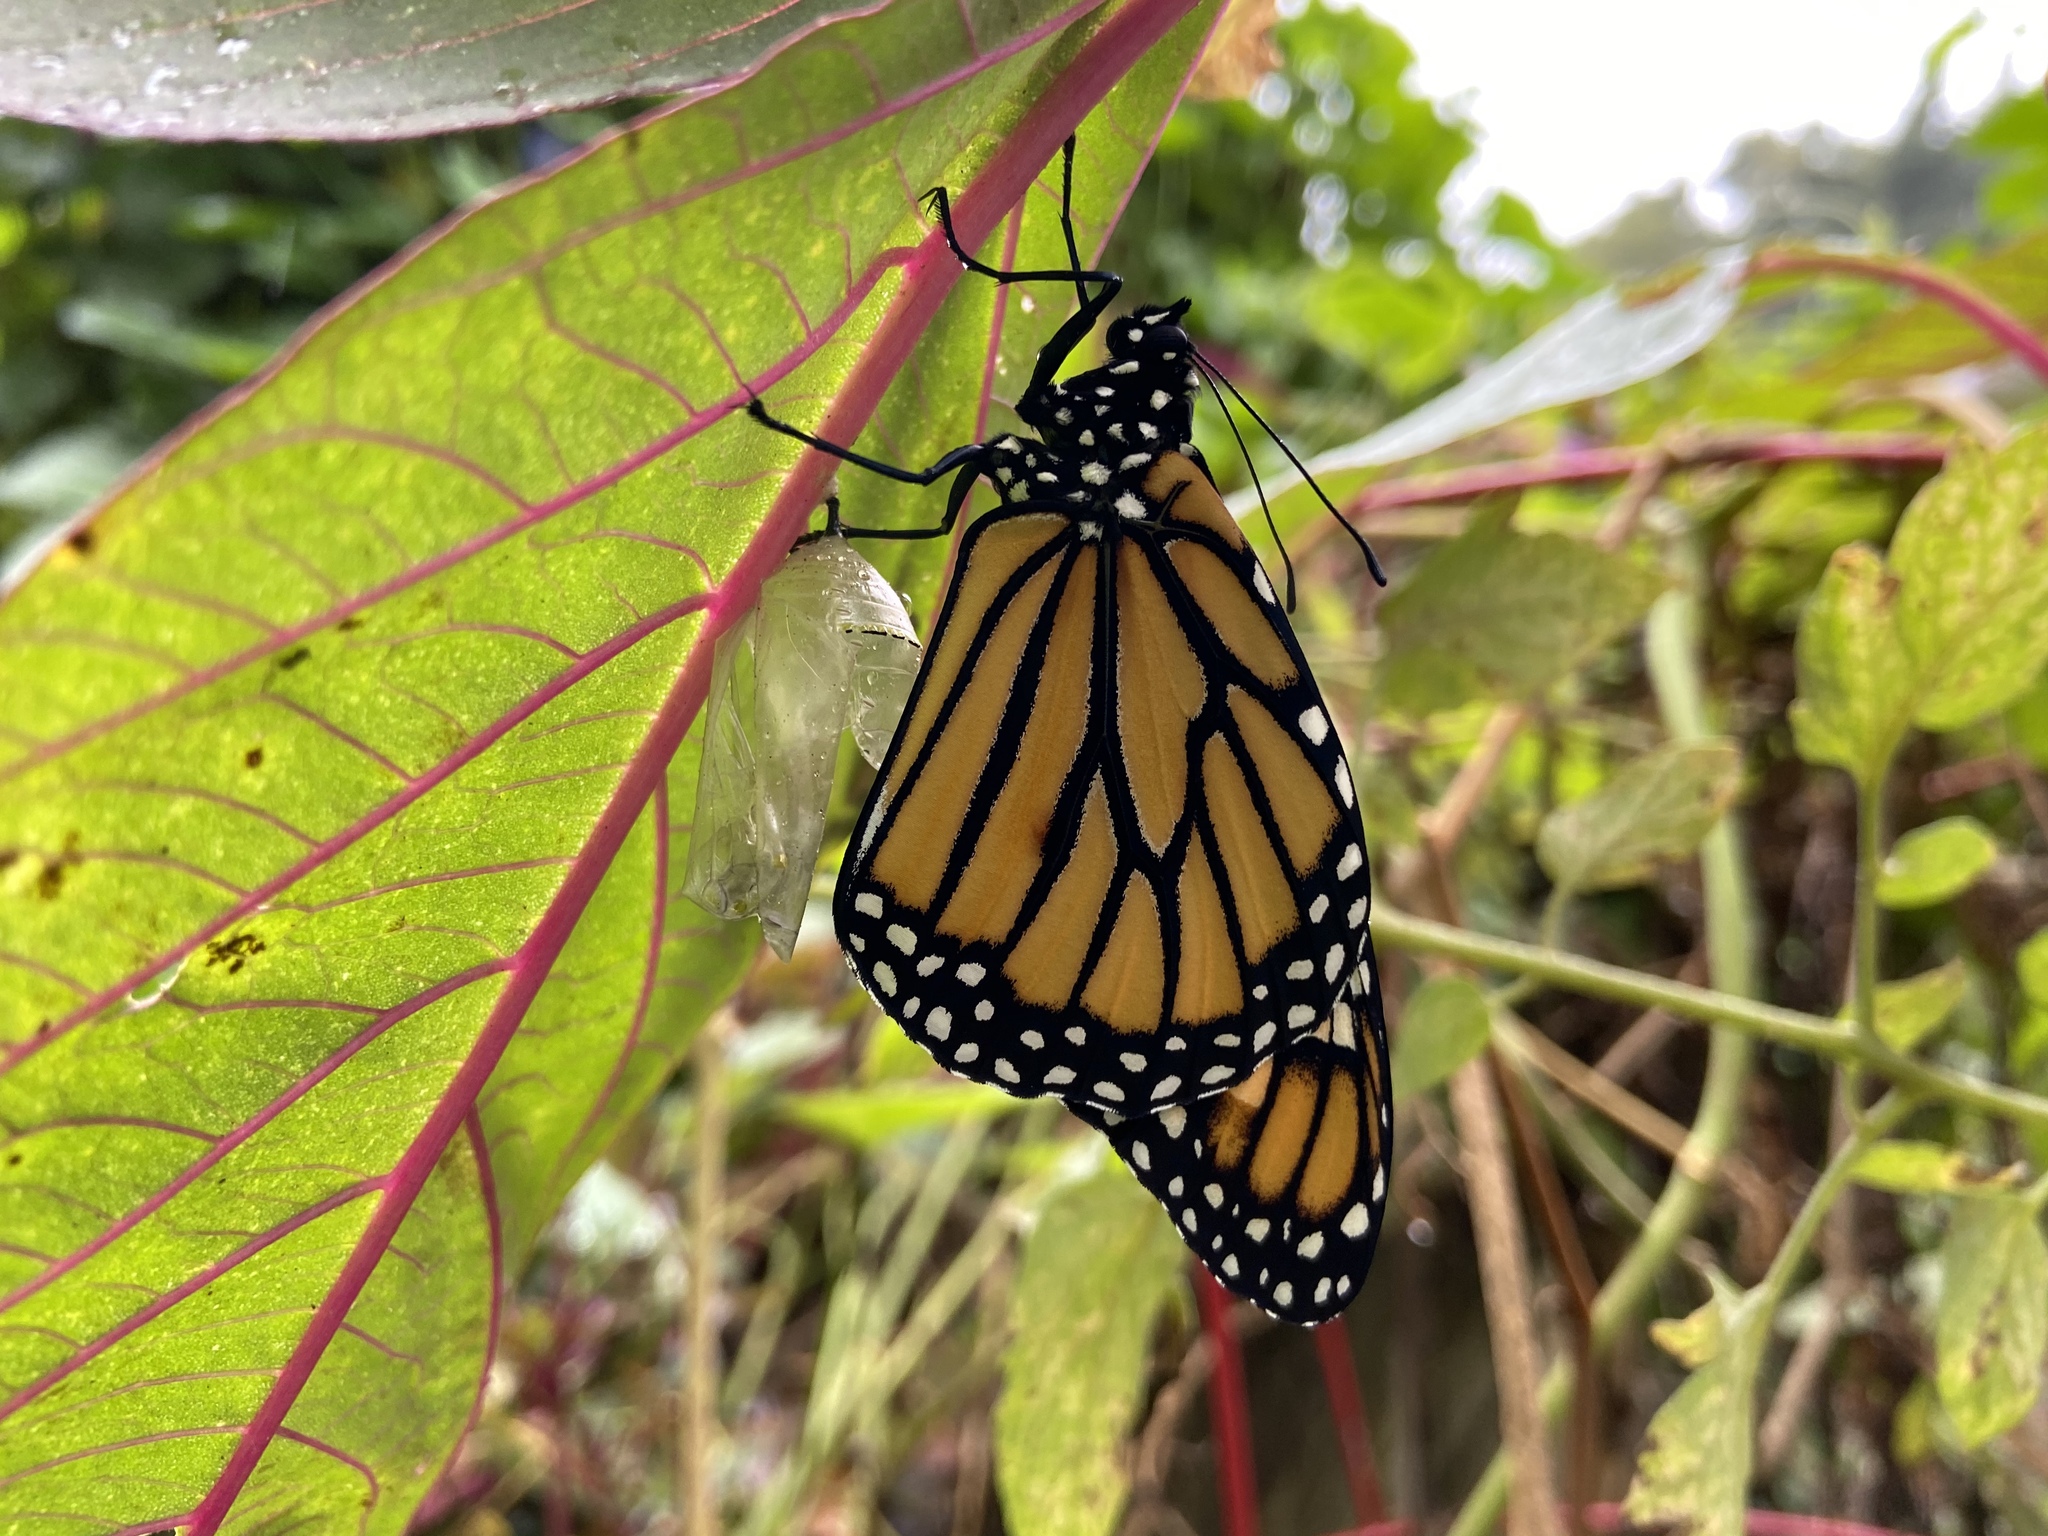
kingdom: Animalia
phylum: Arthropoda
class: Insecta
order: Lepidoptera
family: Nymphalidae
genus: Danaus
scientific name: Danaus plexippus
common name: Monarch
